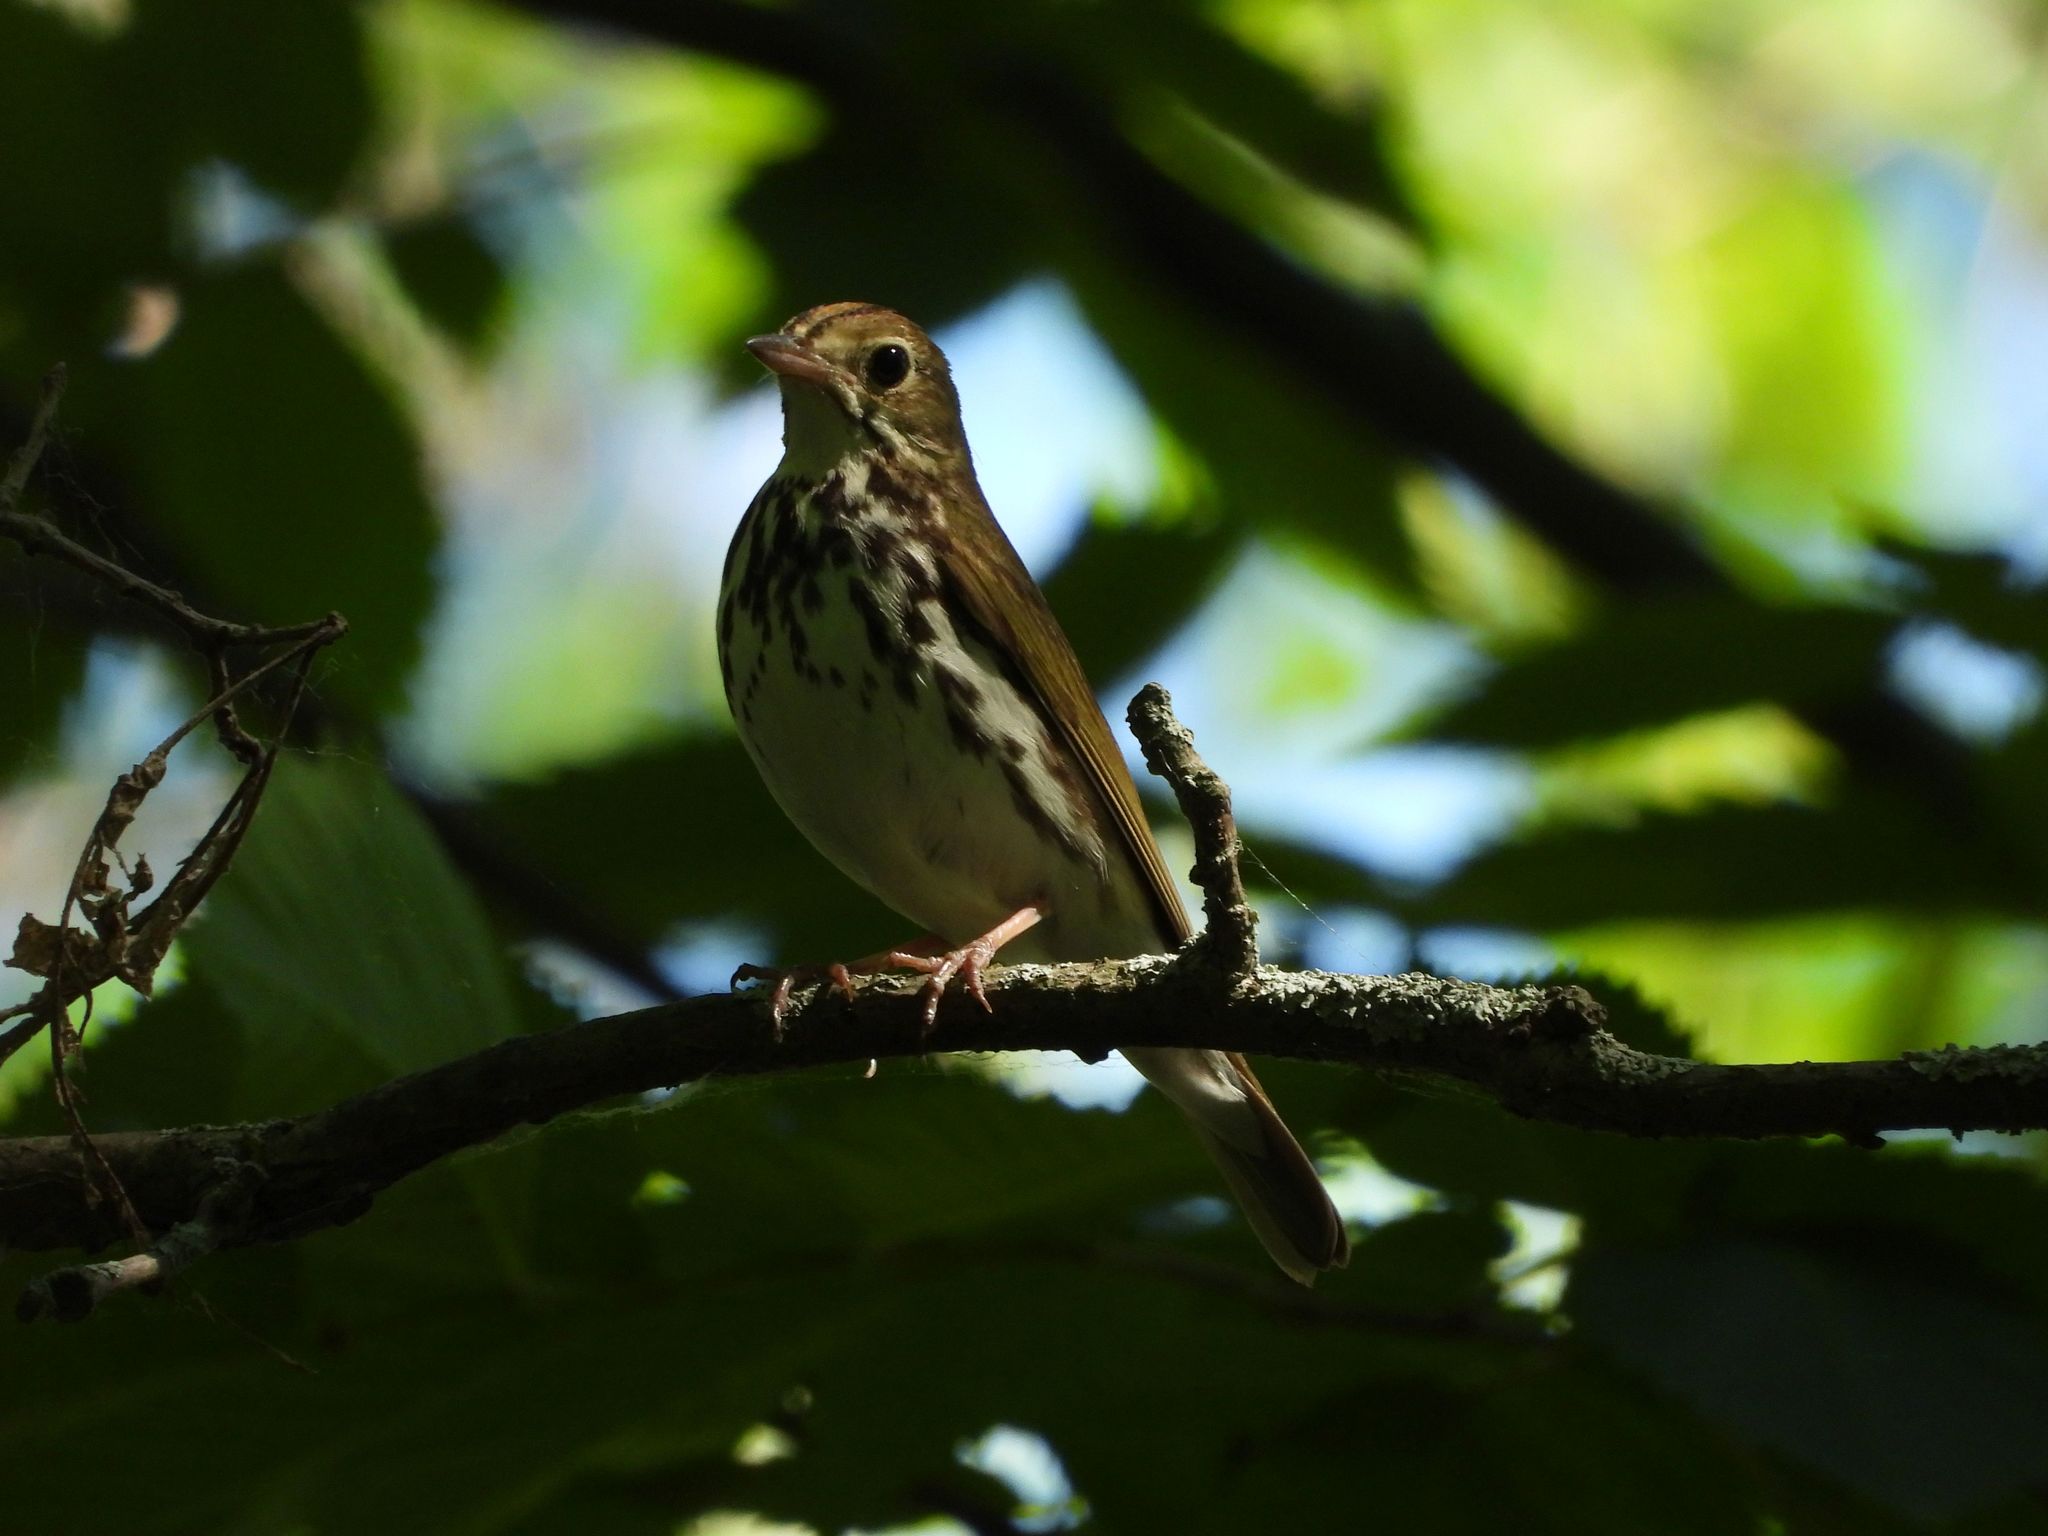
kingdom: Animalia
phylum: Chordata
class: Aves
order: Passeriformes
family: Parulidae
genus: Seiurus
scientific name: Seiurus aurocapilla
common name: Ovenbird
